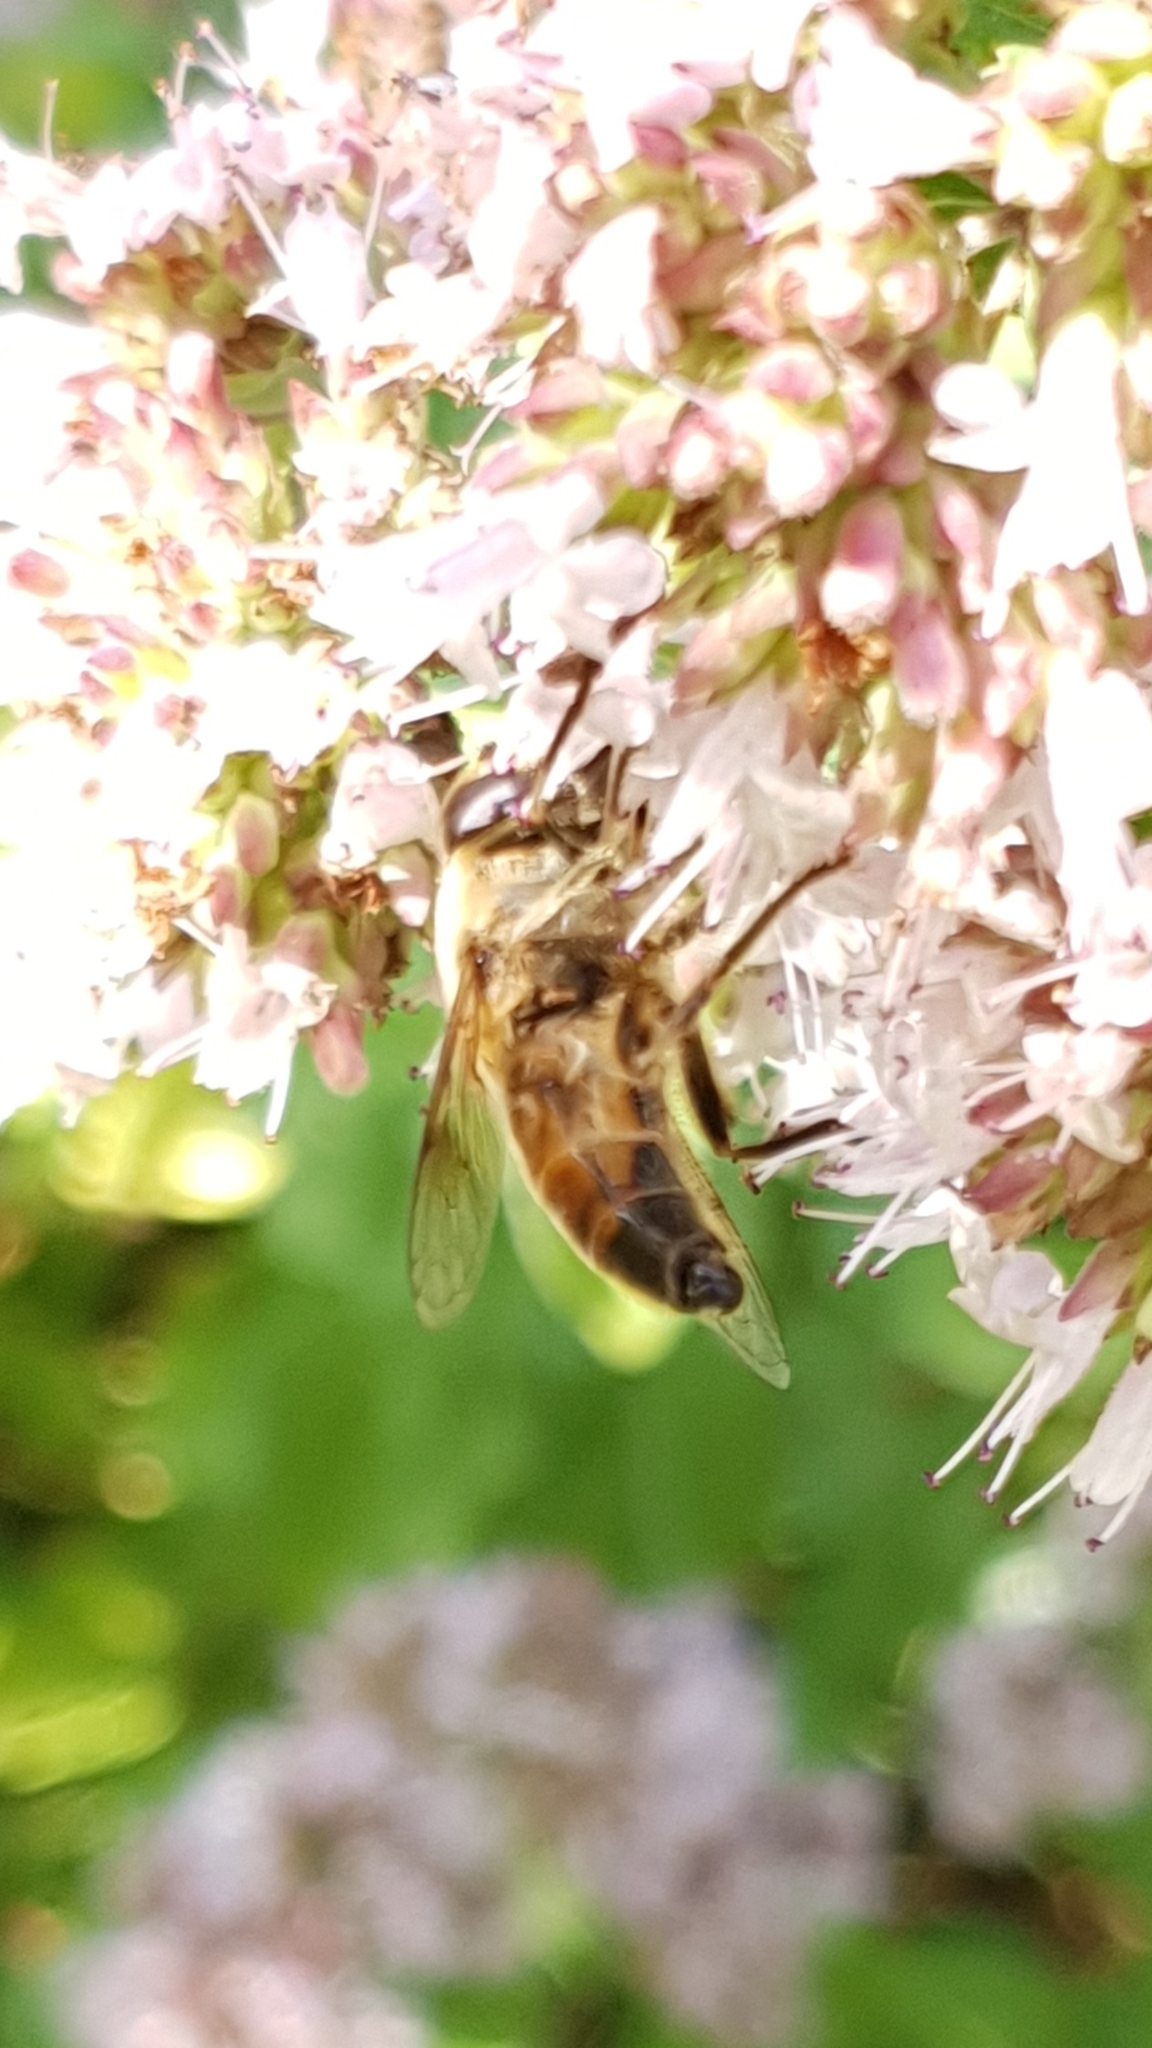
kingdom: Animalia
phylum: Arthropoda
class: Insecta
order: Diptera
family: Syrphidae
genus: Helophilus
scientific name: Helophilus trivittatus
